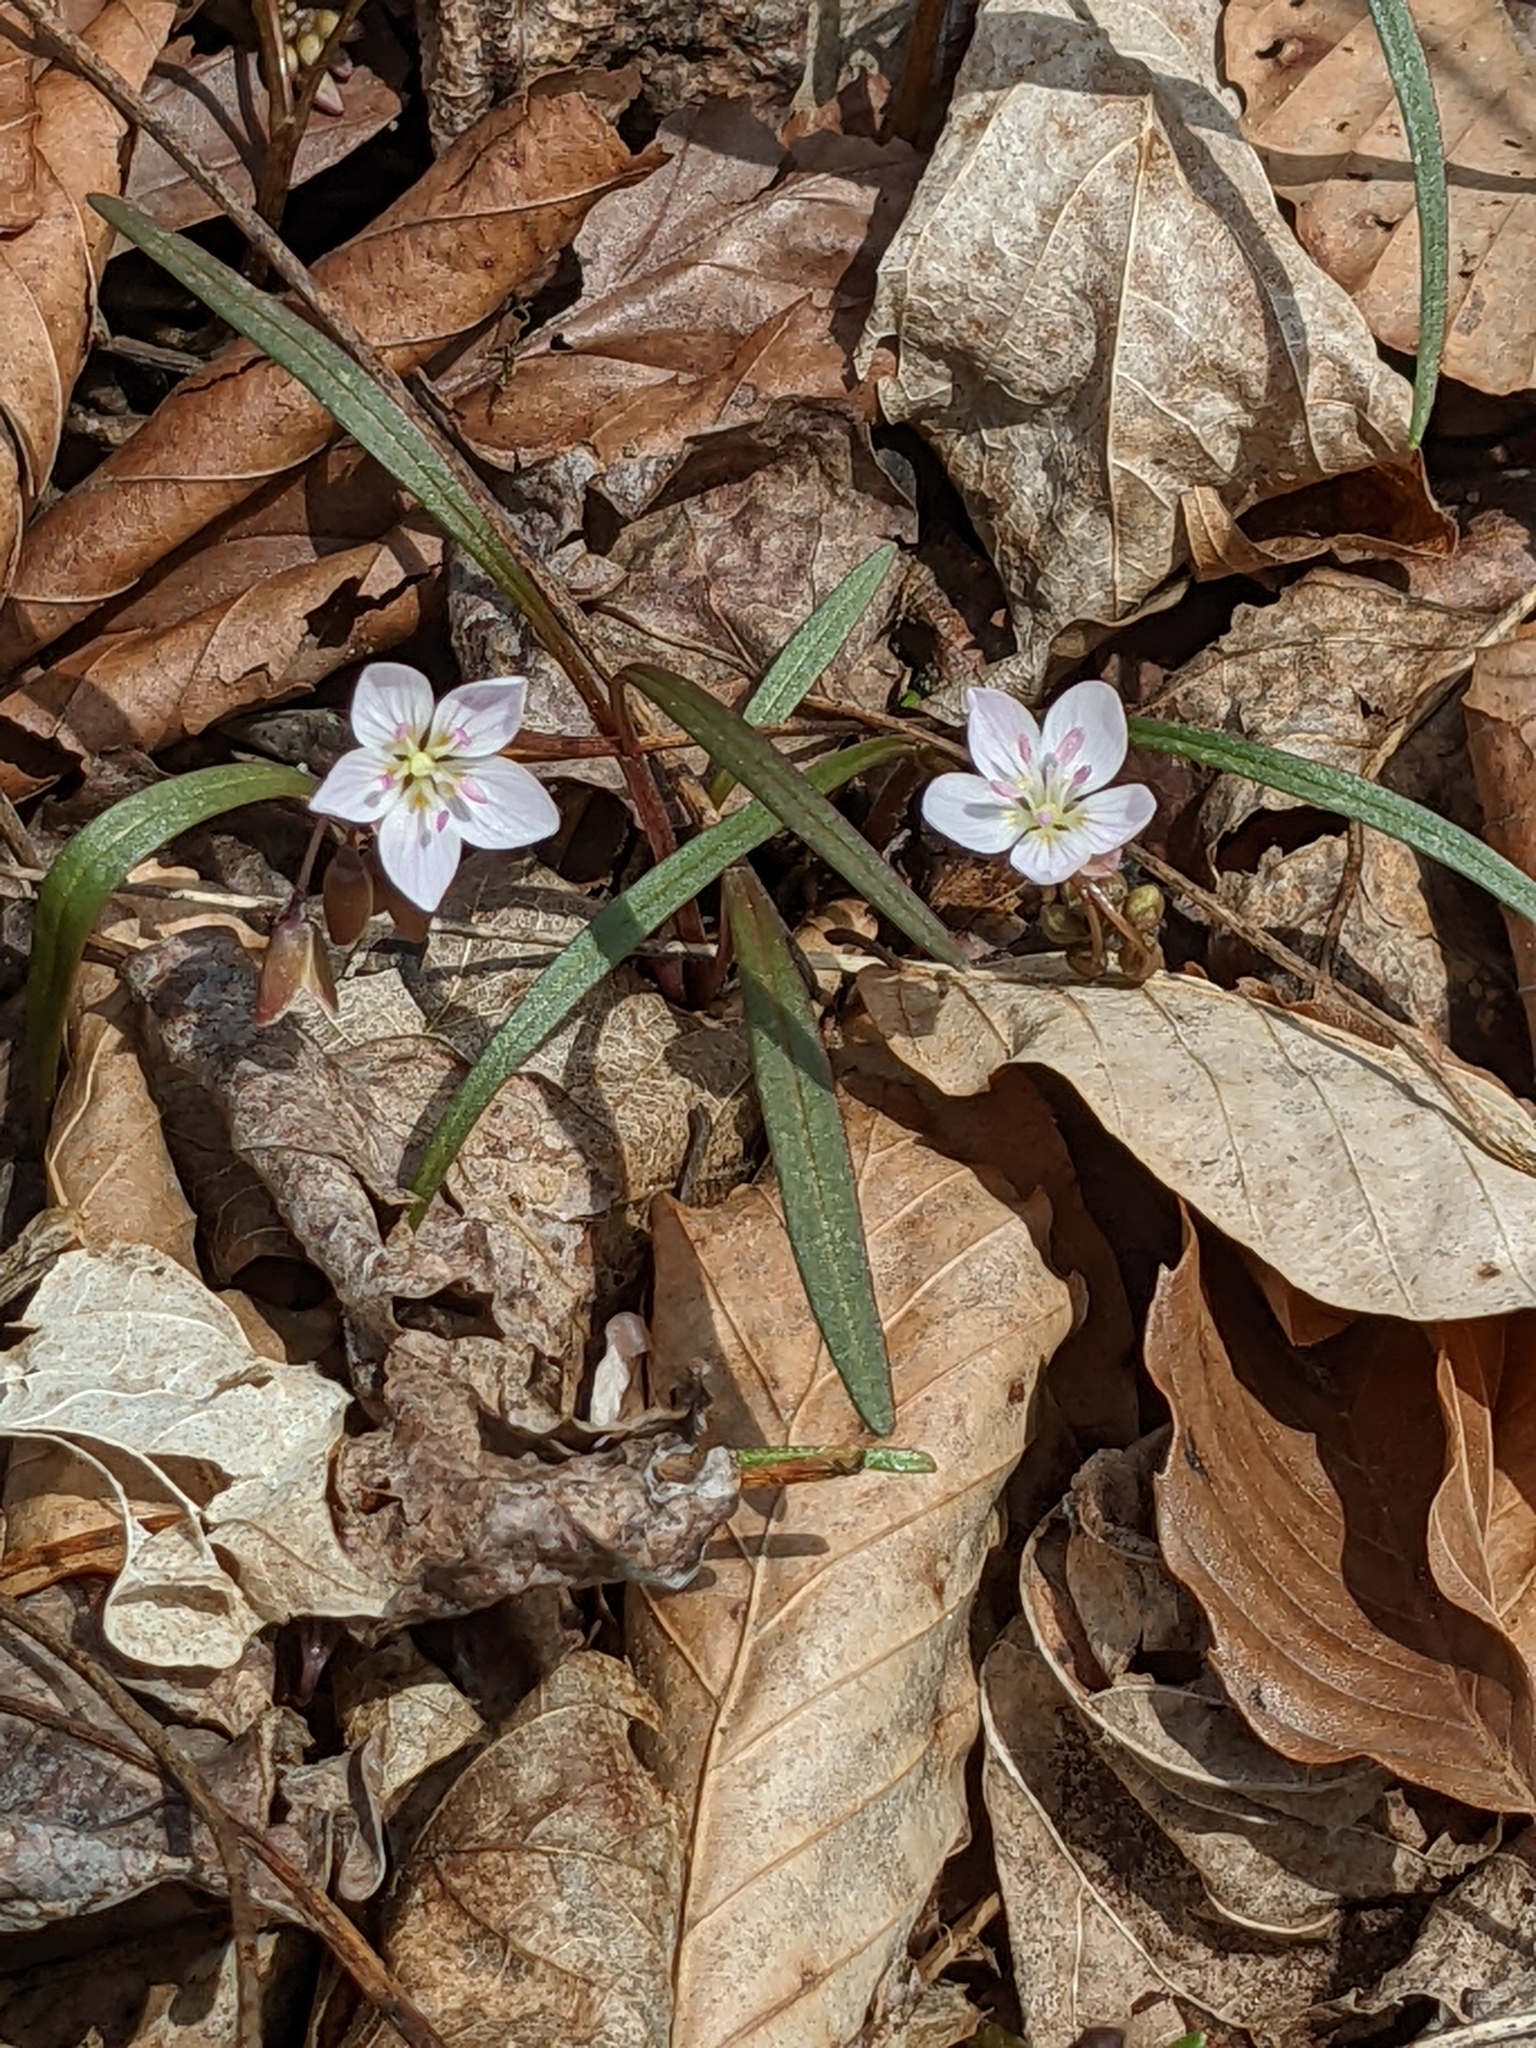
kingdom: Plantae
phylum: Tracheophyta
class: Magnoliopsida
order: Caryophyllales
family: Montiaceae
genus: Claytonia
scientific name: Claytonia virginica
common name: Virginia springbeauty
